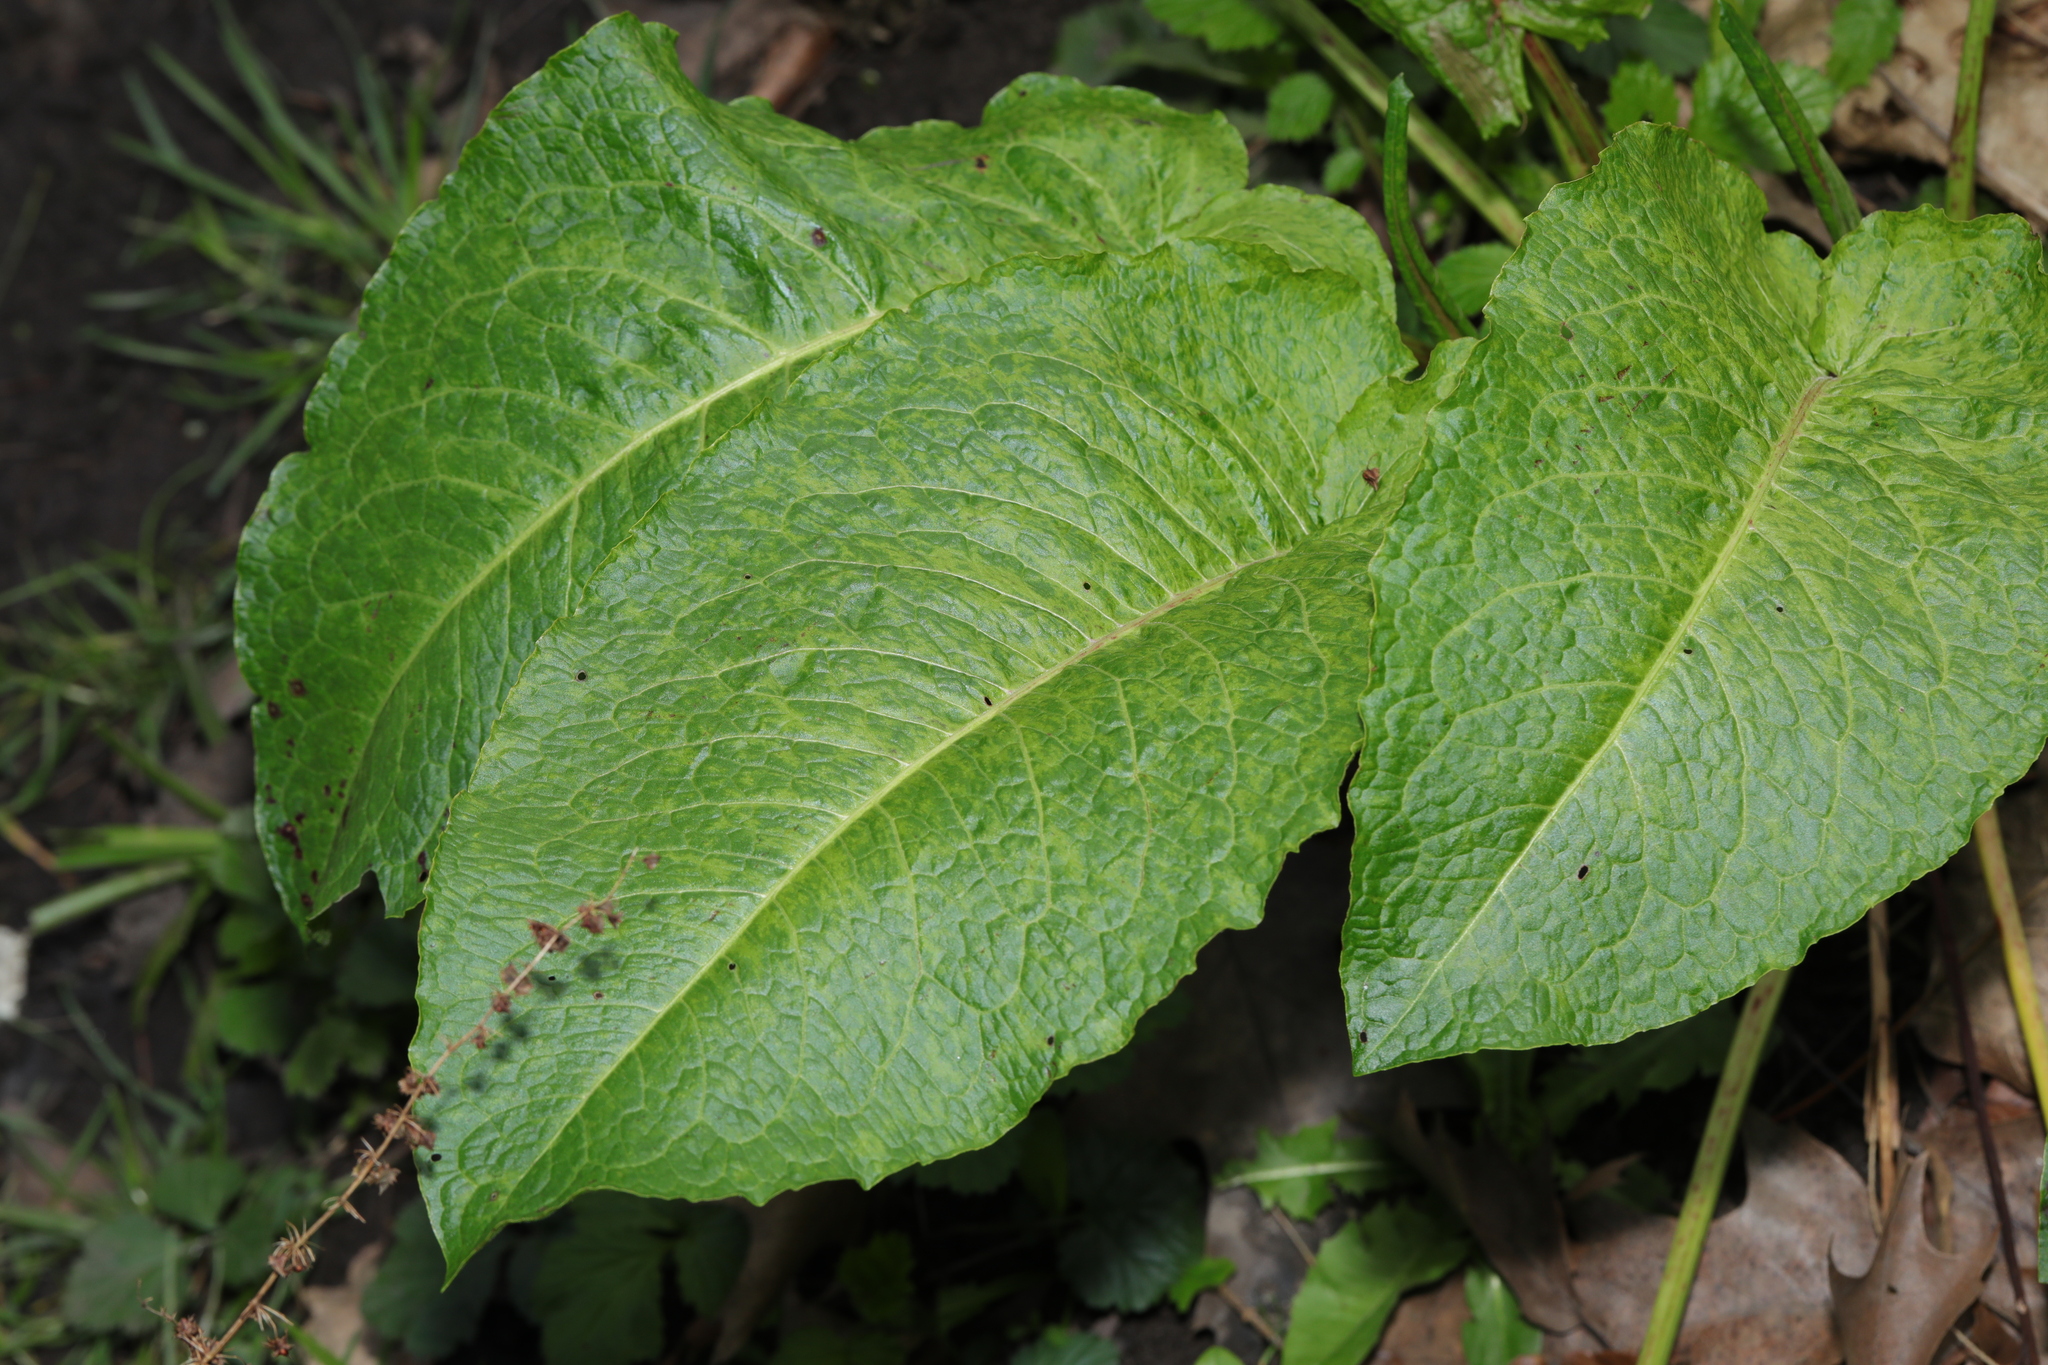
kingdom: Plantae
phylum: Tracheophyta
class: Magnoliopsida
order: Caryophyllales
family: Polygonaceae
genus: Rumex
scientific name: Rumex obtusifolius
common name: Bitter dock
